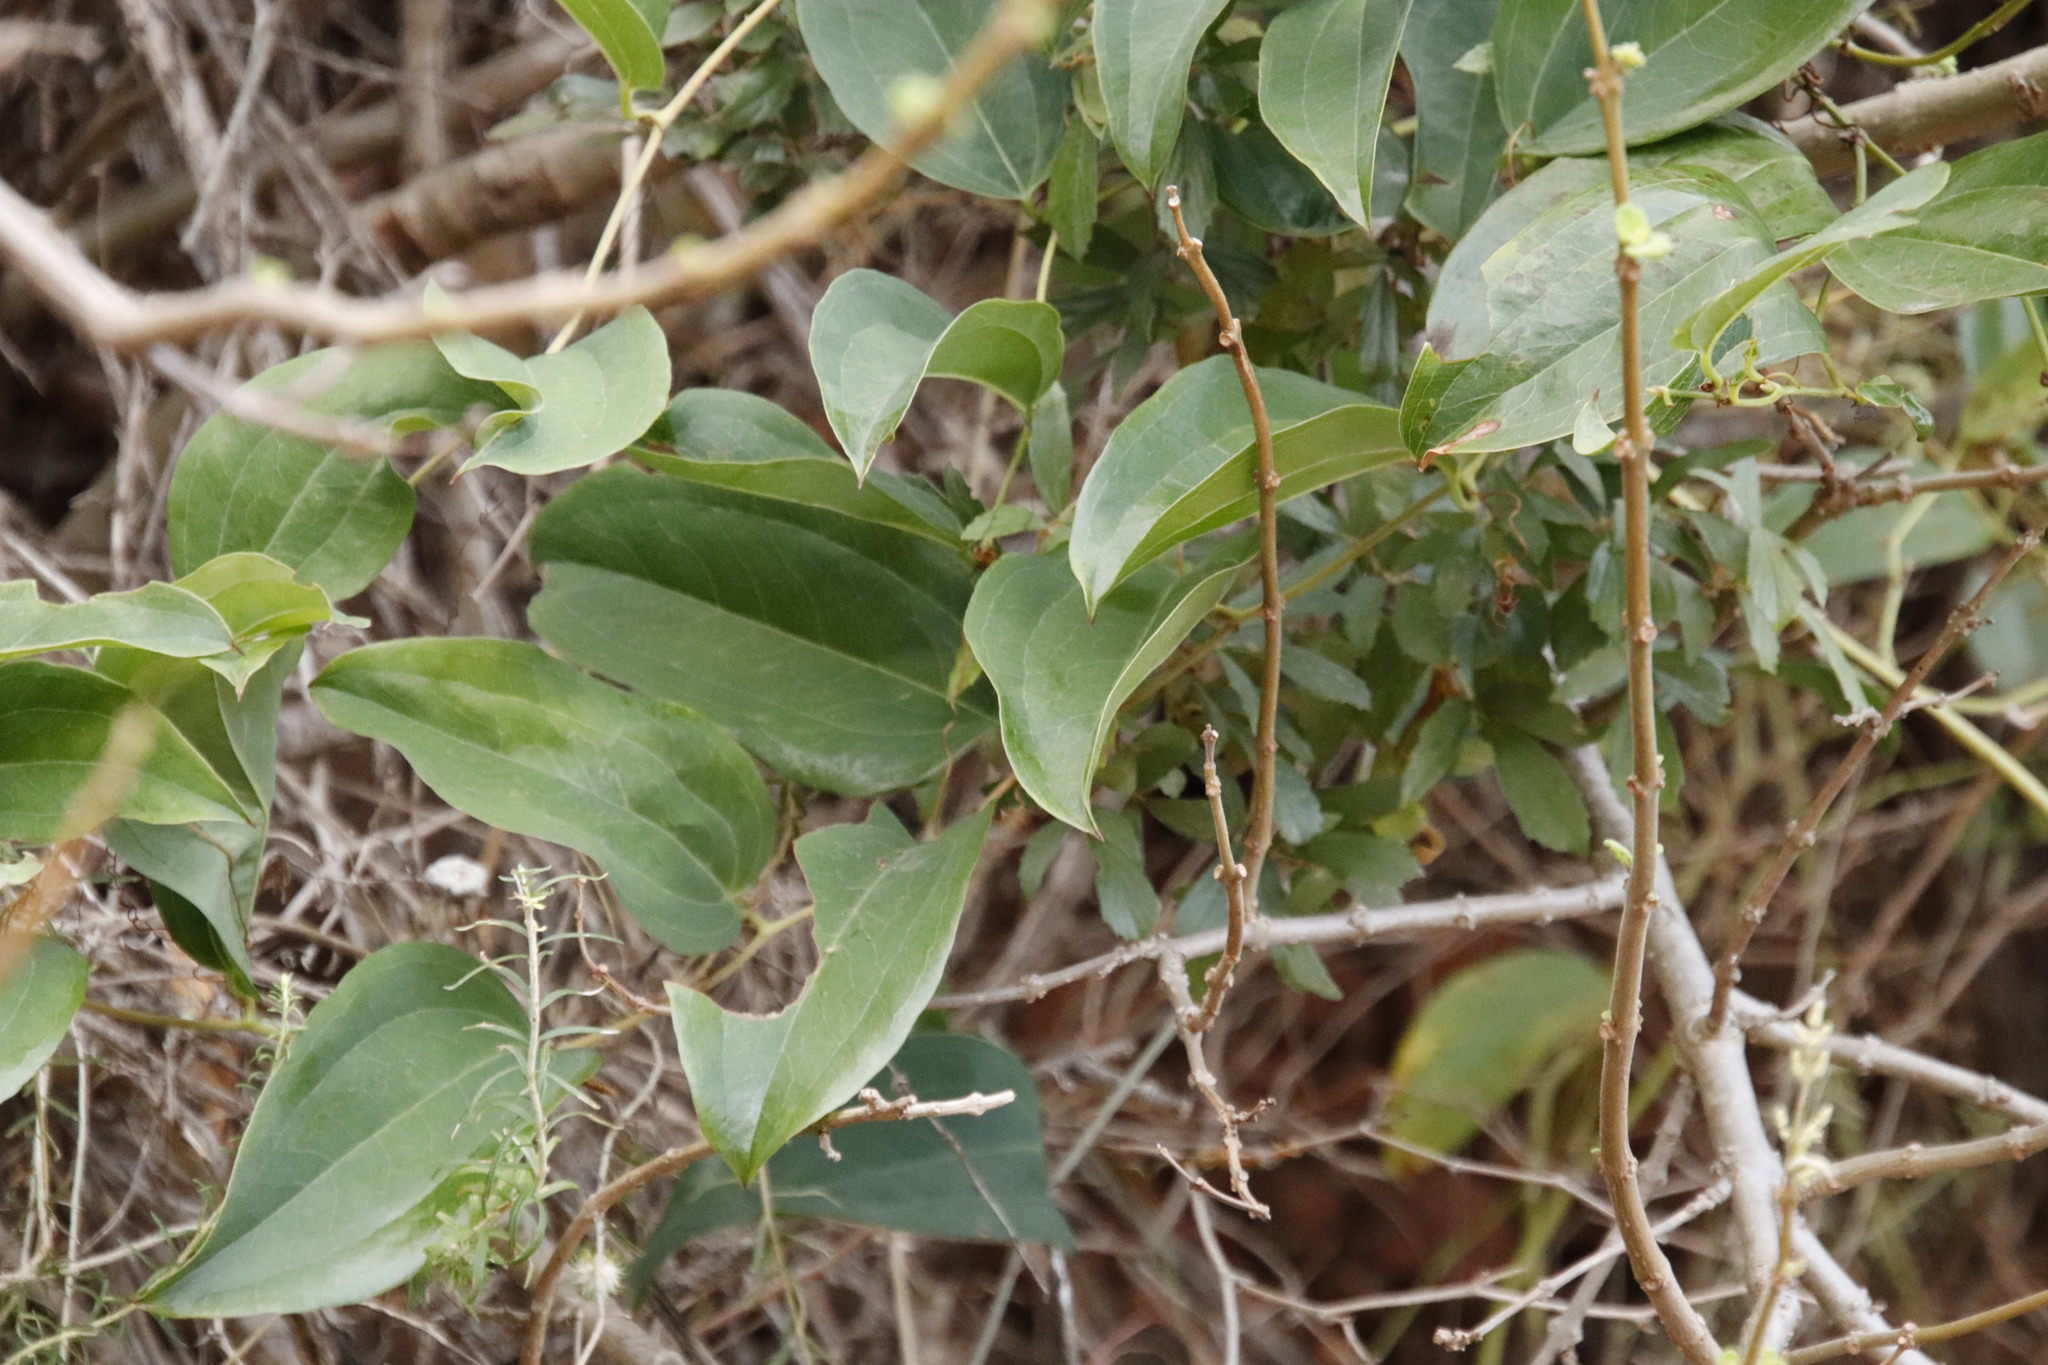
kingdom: Plantae
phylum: Tracheophyta
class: Liliopsida
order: Liliales
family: Smilacaceae
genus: Smilax
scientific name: Smilax anceps
